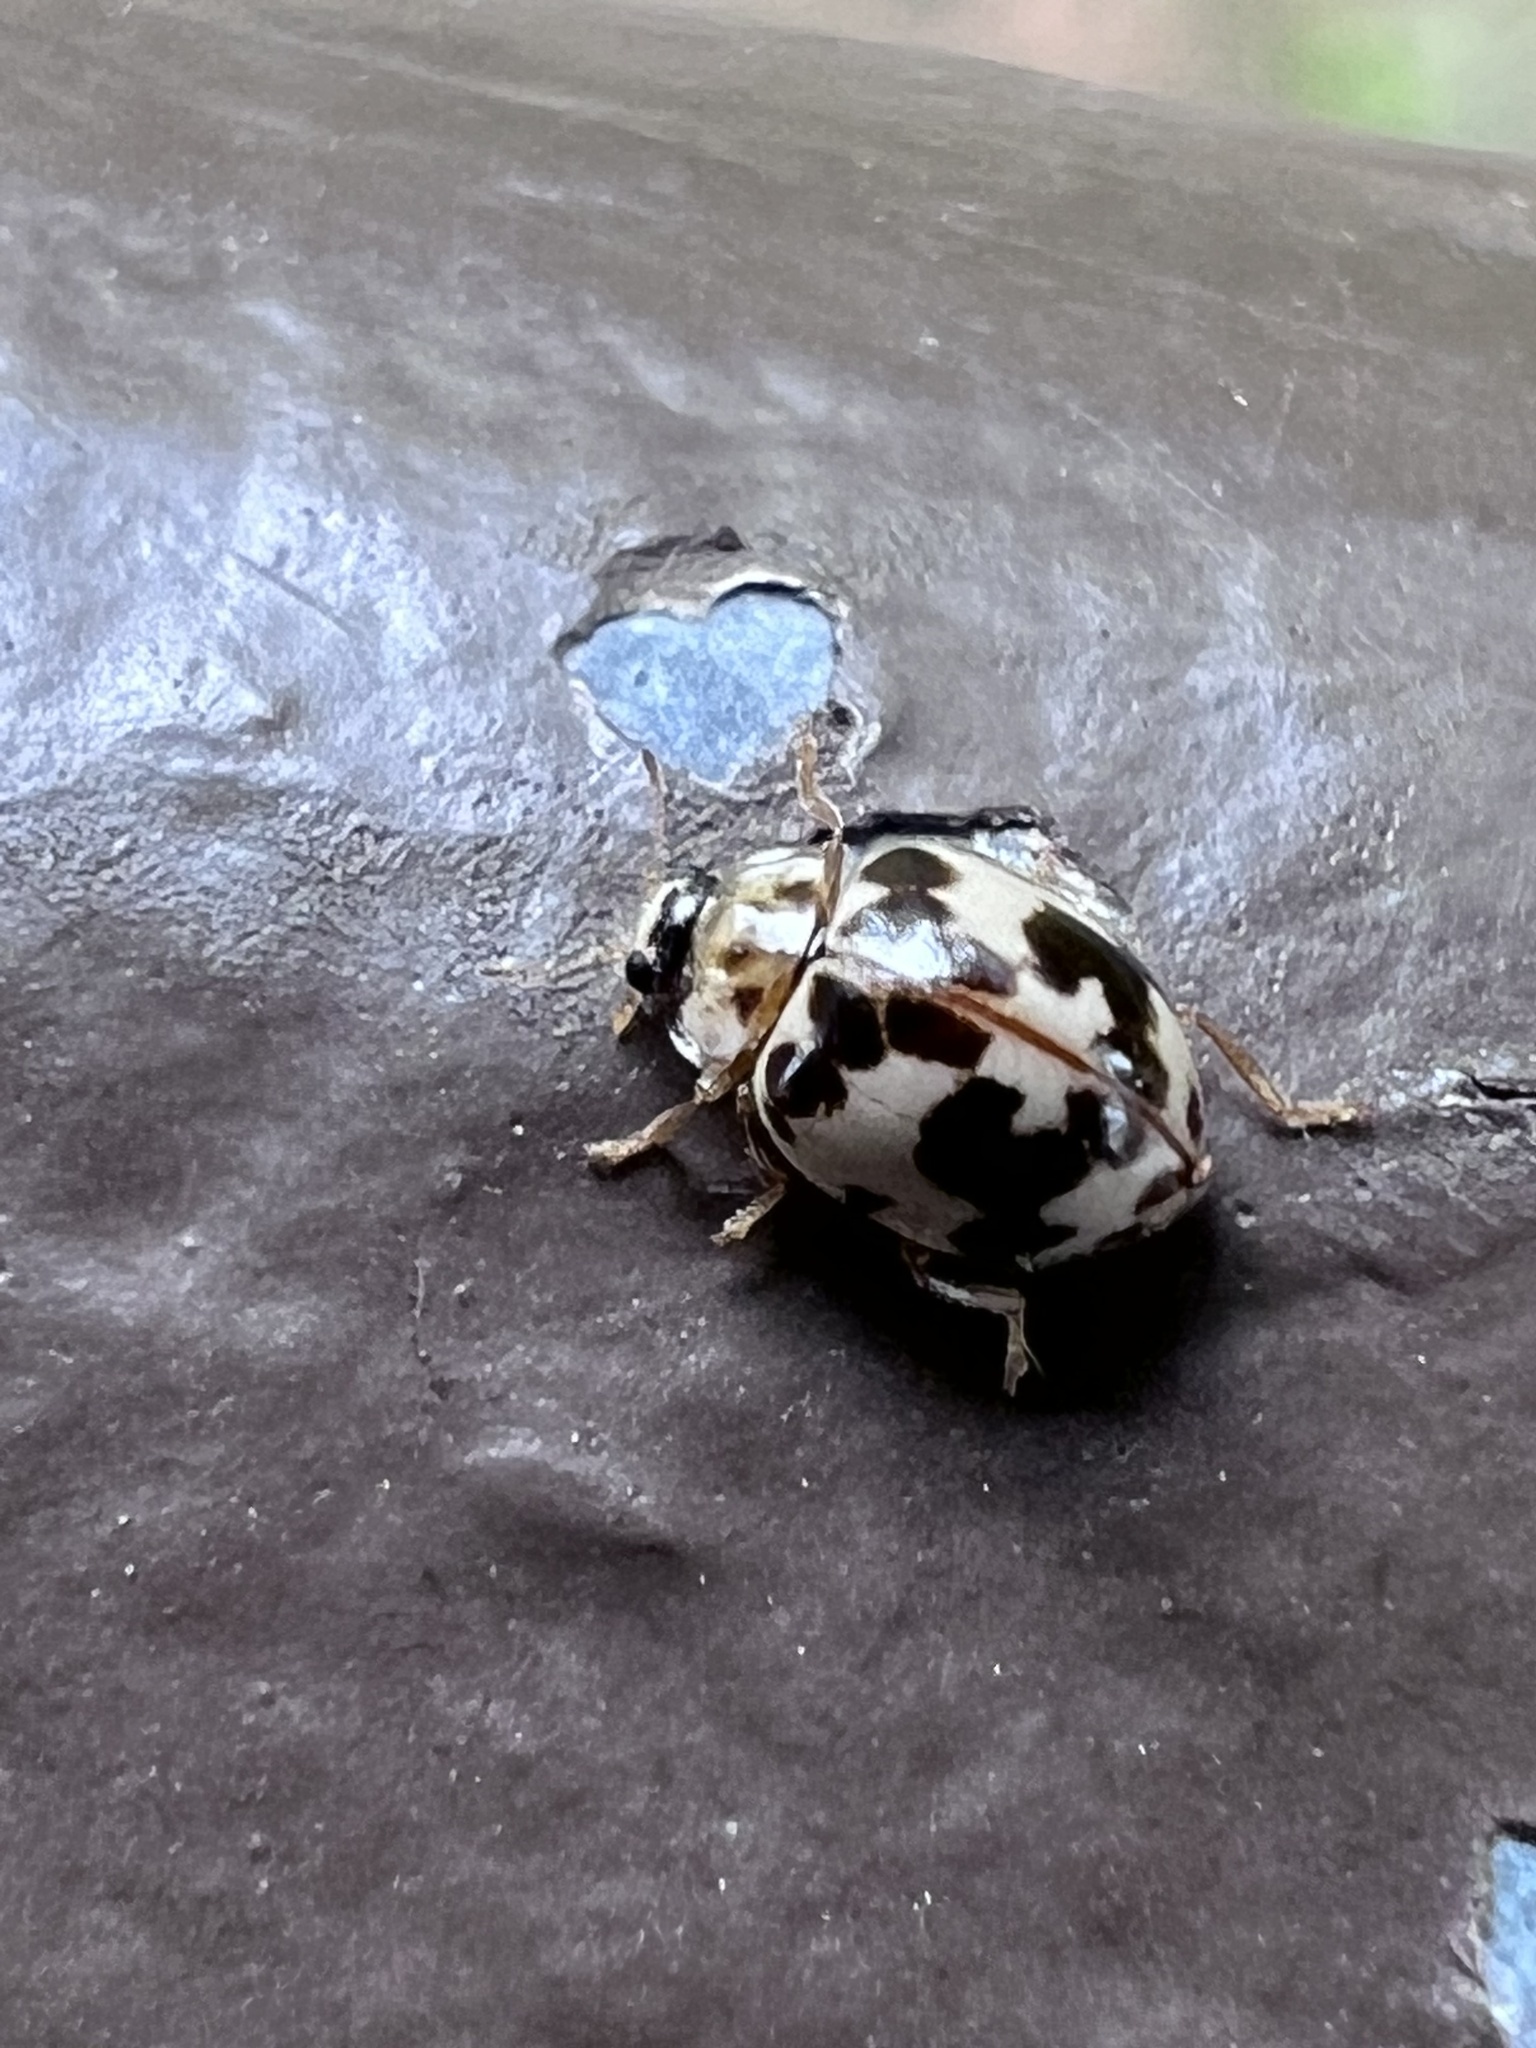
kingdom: Animalia
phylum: Arthropoda
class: Insecta
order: Coleoptera
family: Coccinellidae
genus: Psyllobora
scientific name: Psyllobora borealis
